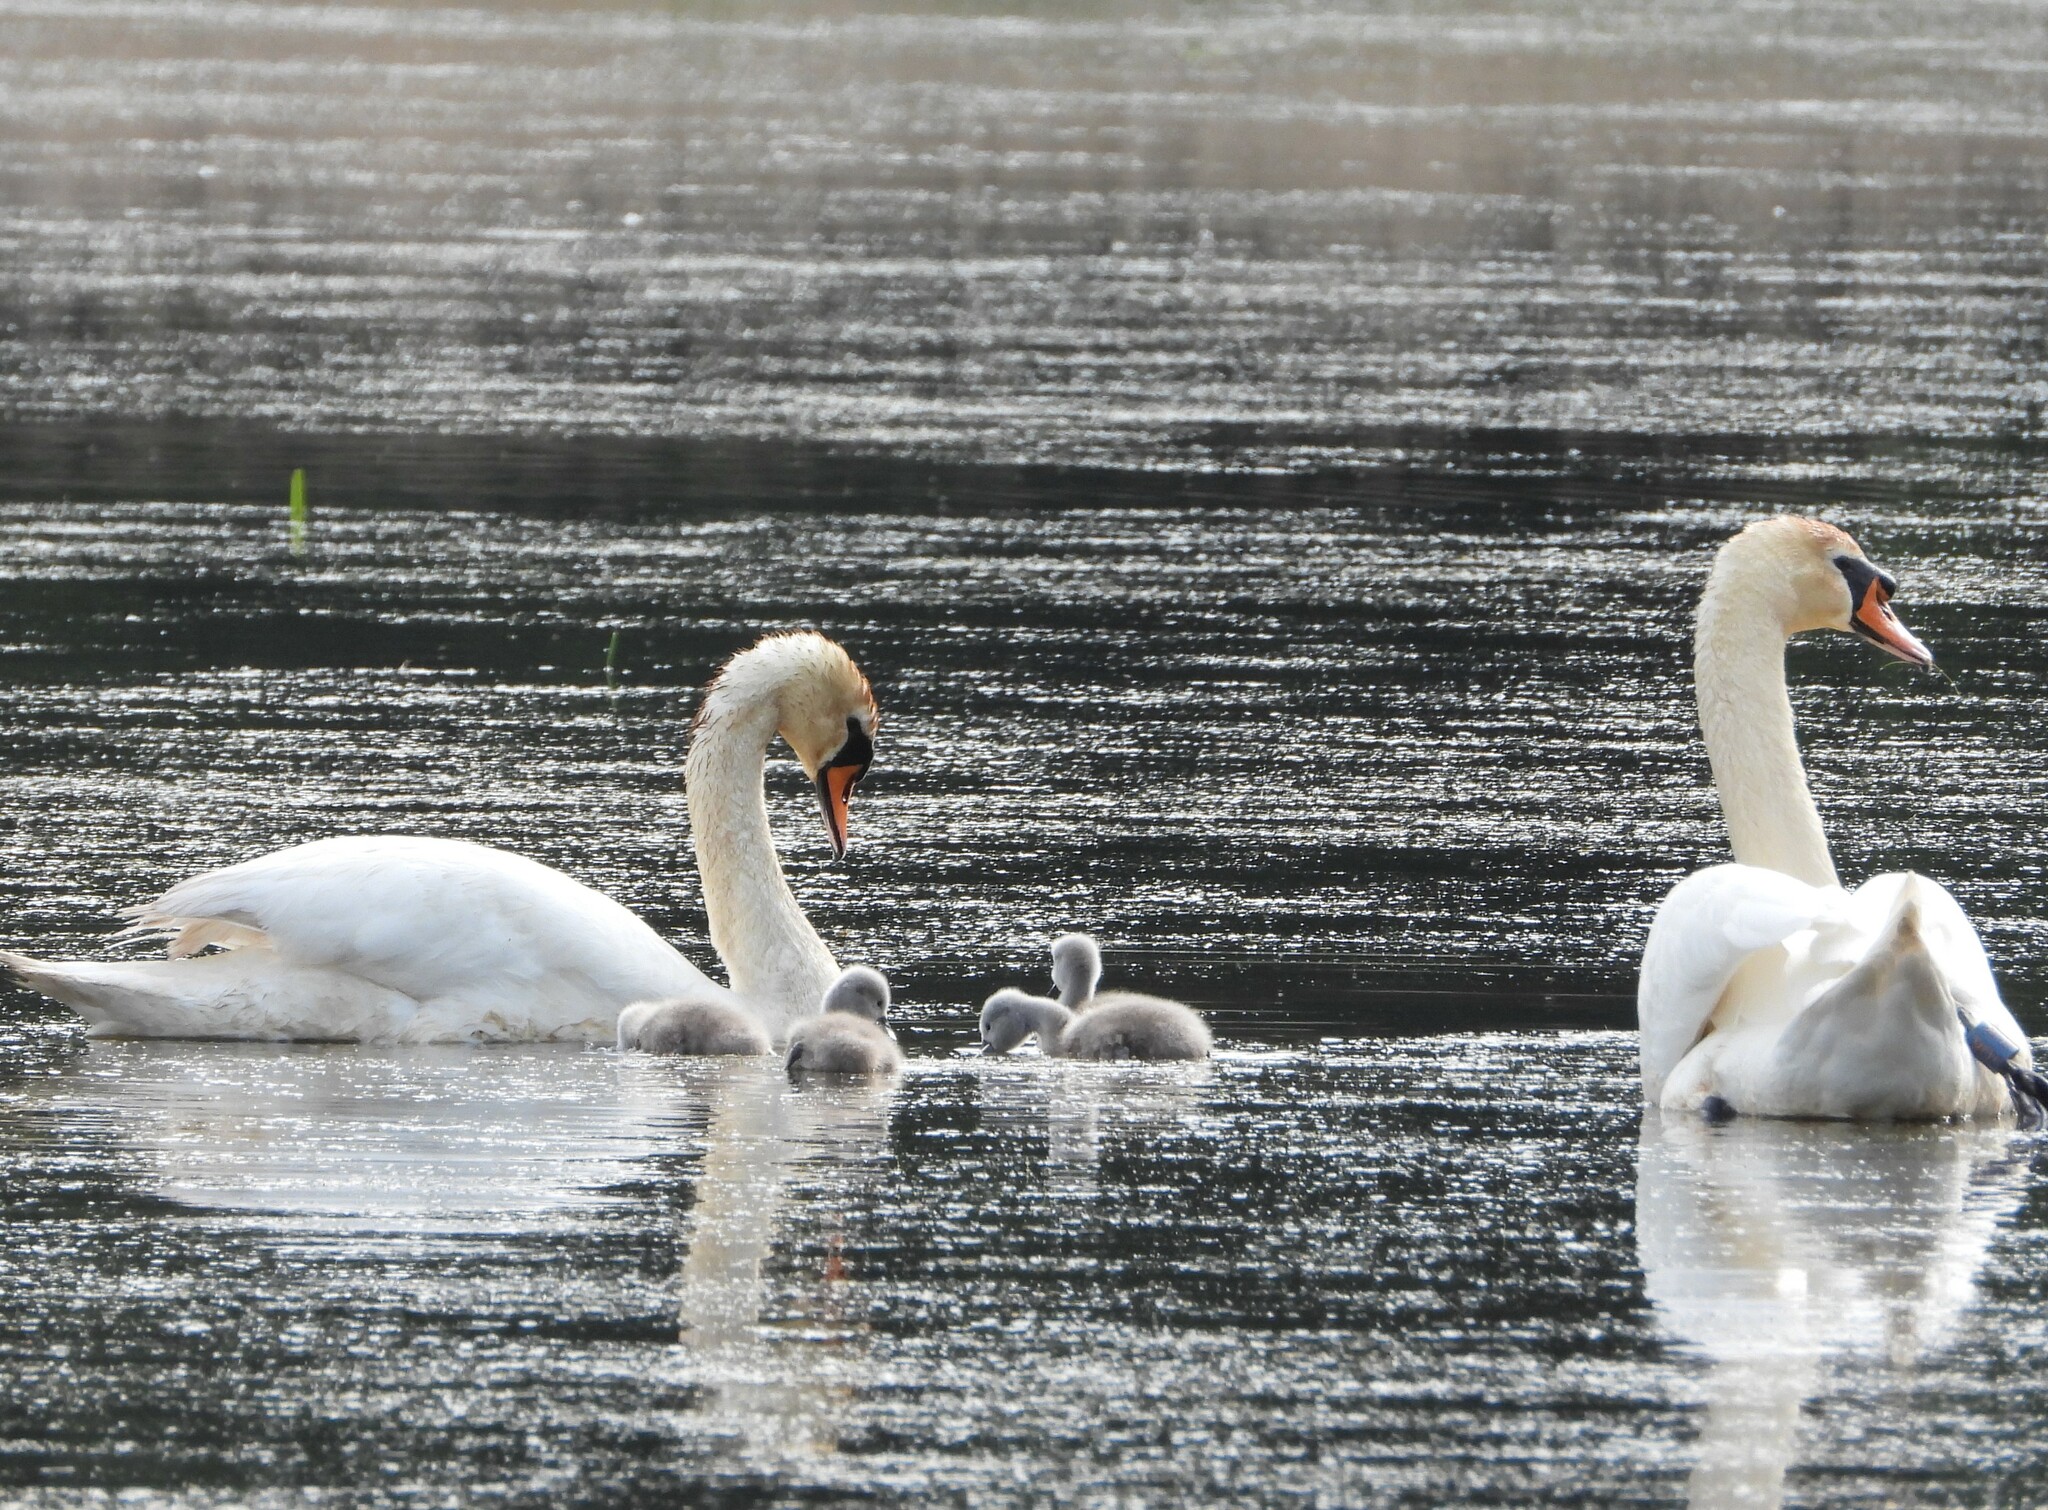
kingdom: Animalia
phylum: Chordata
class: Aves
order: Anseriformes
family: Anatidae
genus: Cygnus
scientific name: Cygnus olor
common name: Mute swan
